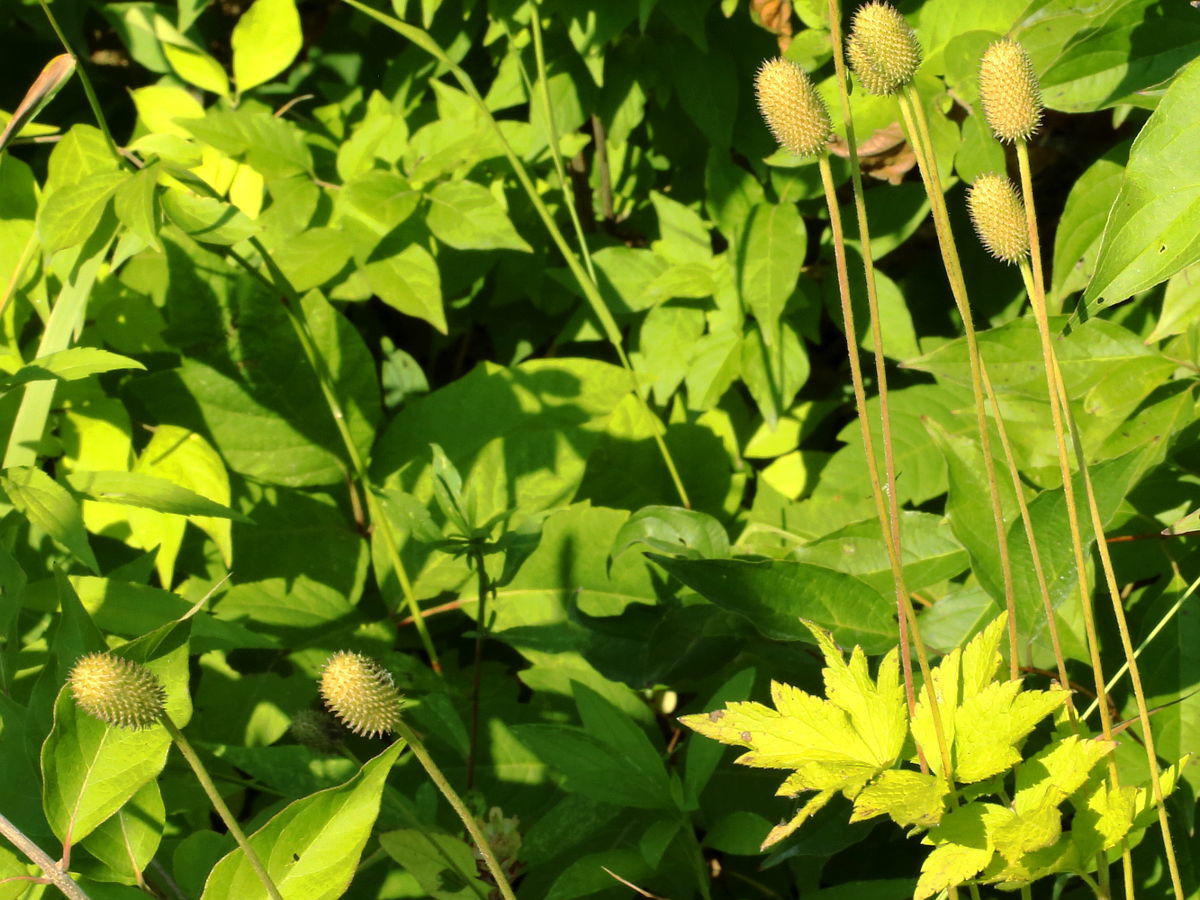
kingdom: Plantae
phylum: Tracheophyta
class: Magnoliopsida
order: Ranunculales
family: Ranunculaceae
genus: Anemone
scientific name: Anemone virginiana
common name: Tall anemone
